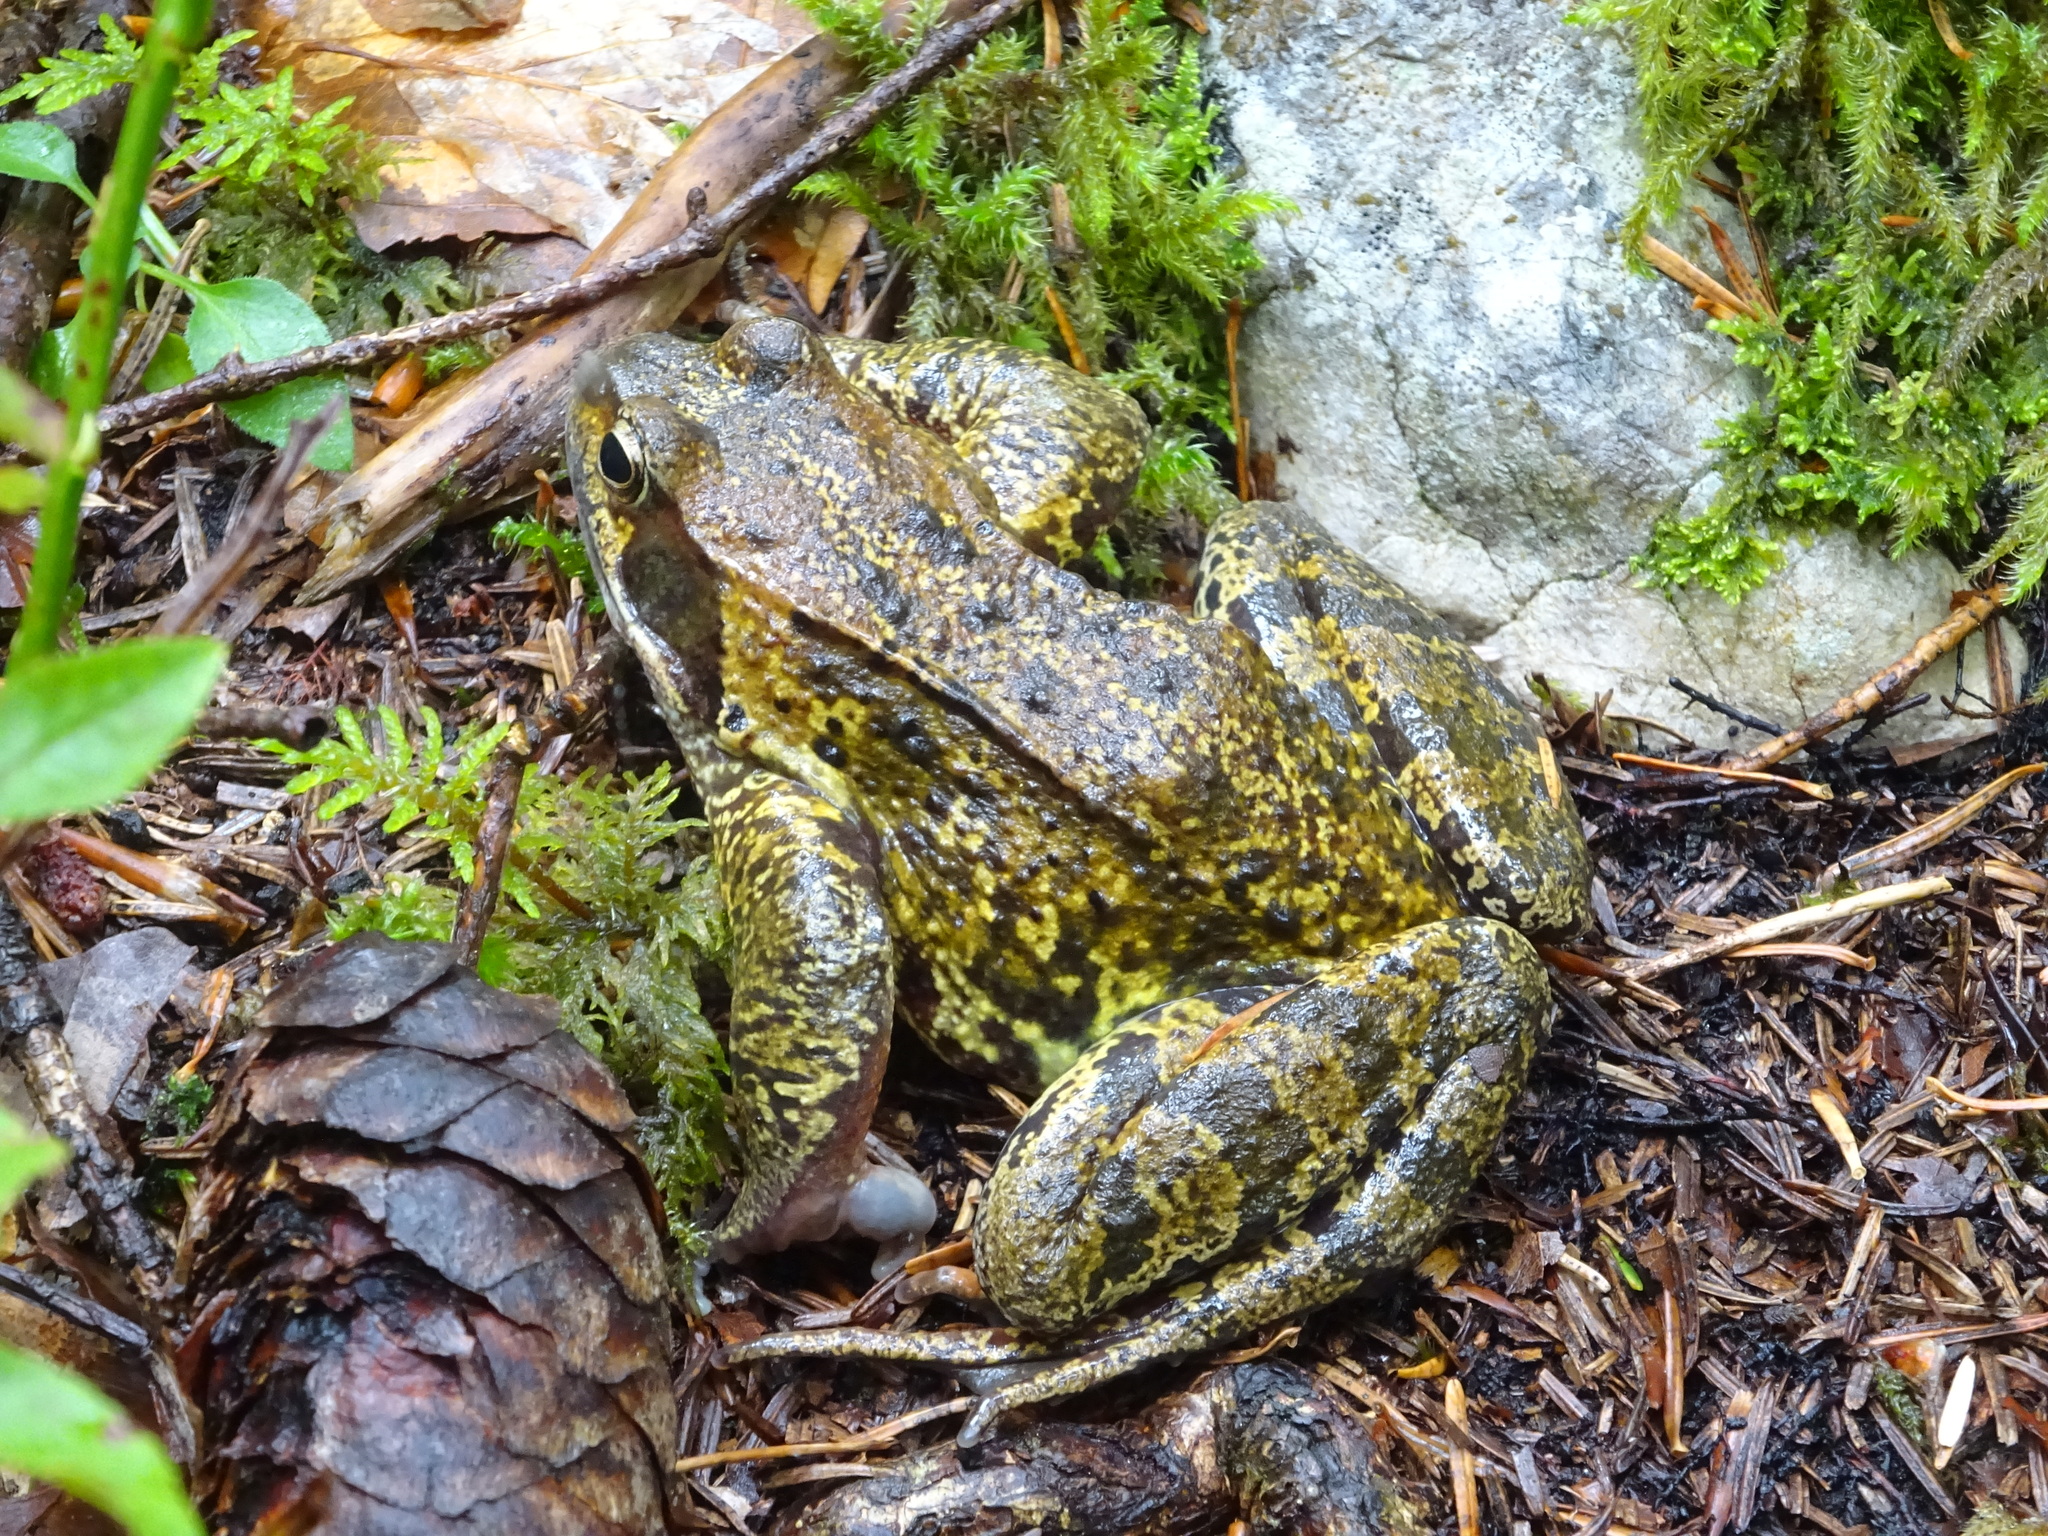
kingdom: Animalia
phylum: Chordata
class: Amphibia
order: Anura
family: Ranidae
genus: Rana
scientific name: Rana temporaria
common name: Common frog
